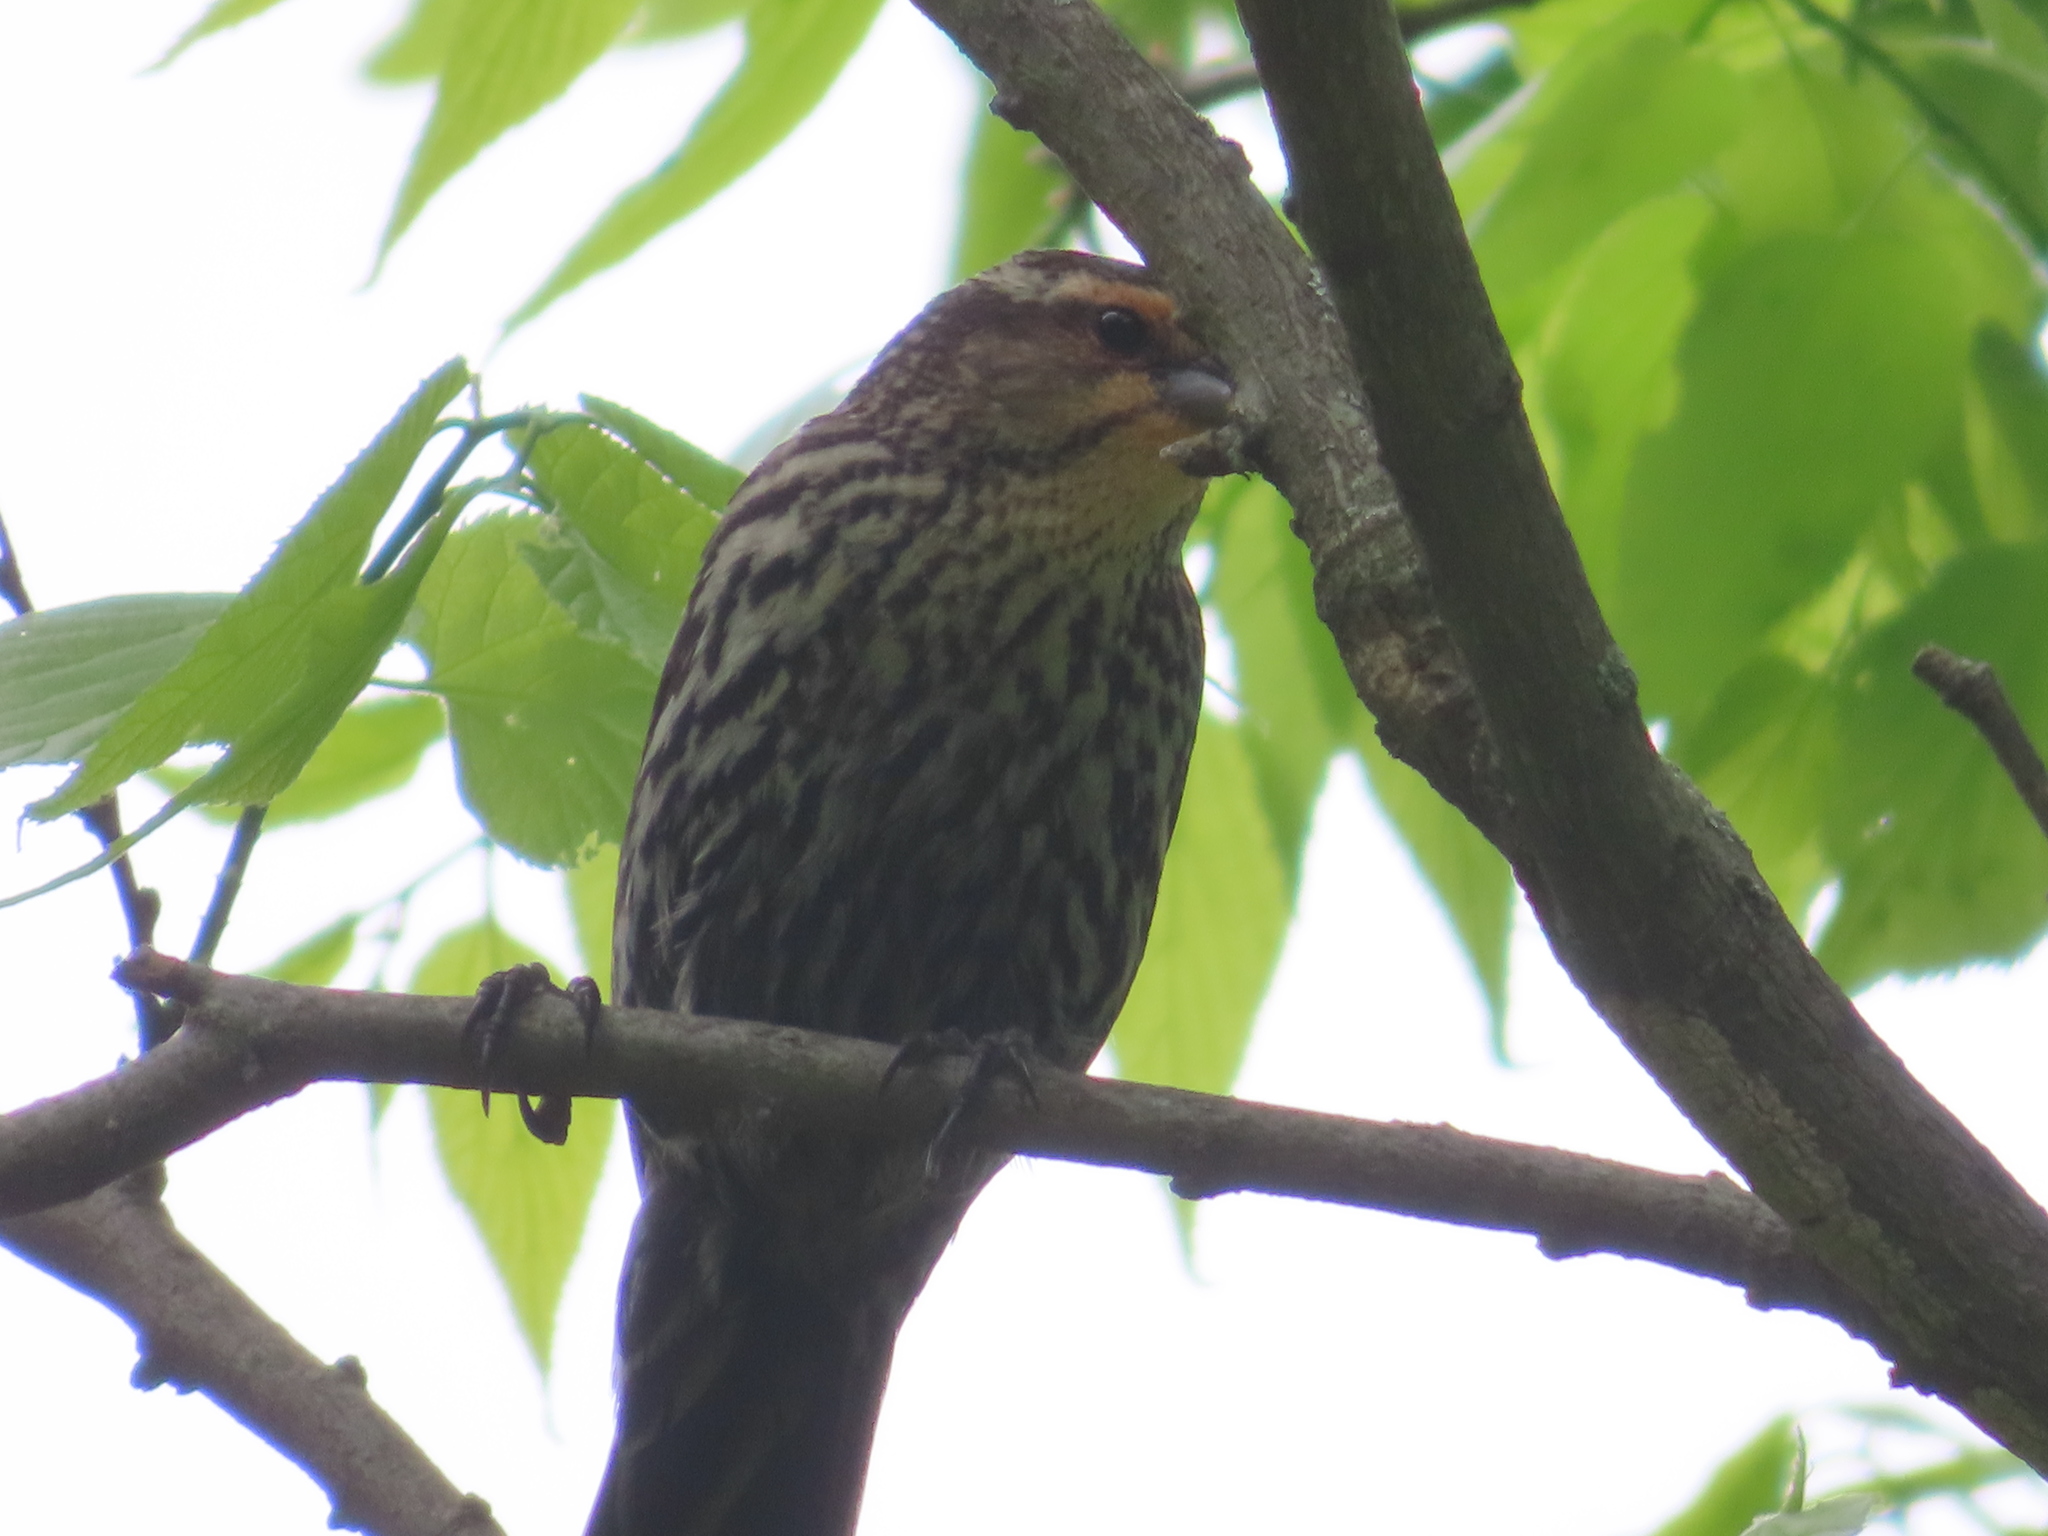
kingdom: Animalia
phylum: Chordata
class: Aves
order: Passeriformes
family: Icteridae
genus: Agelaius
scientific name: Agelaius phoeniceus
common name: Red-winged blackbird
